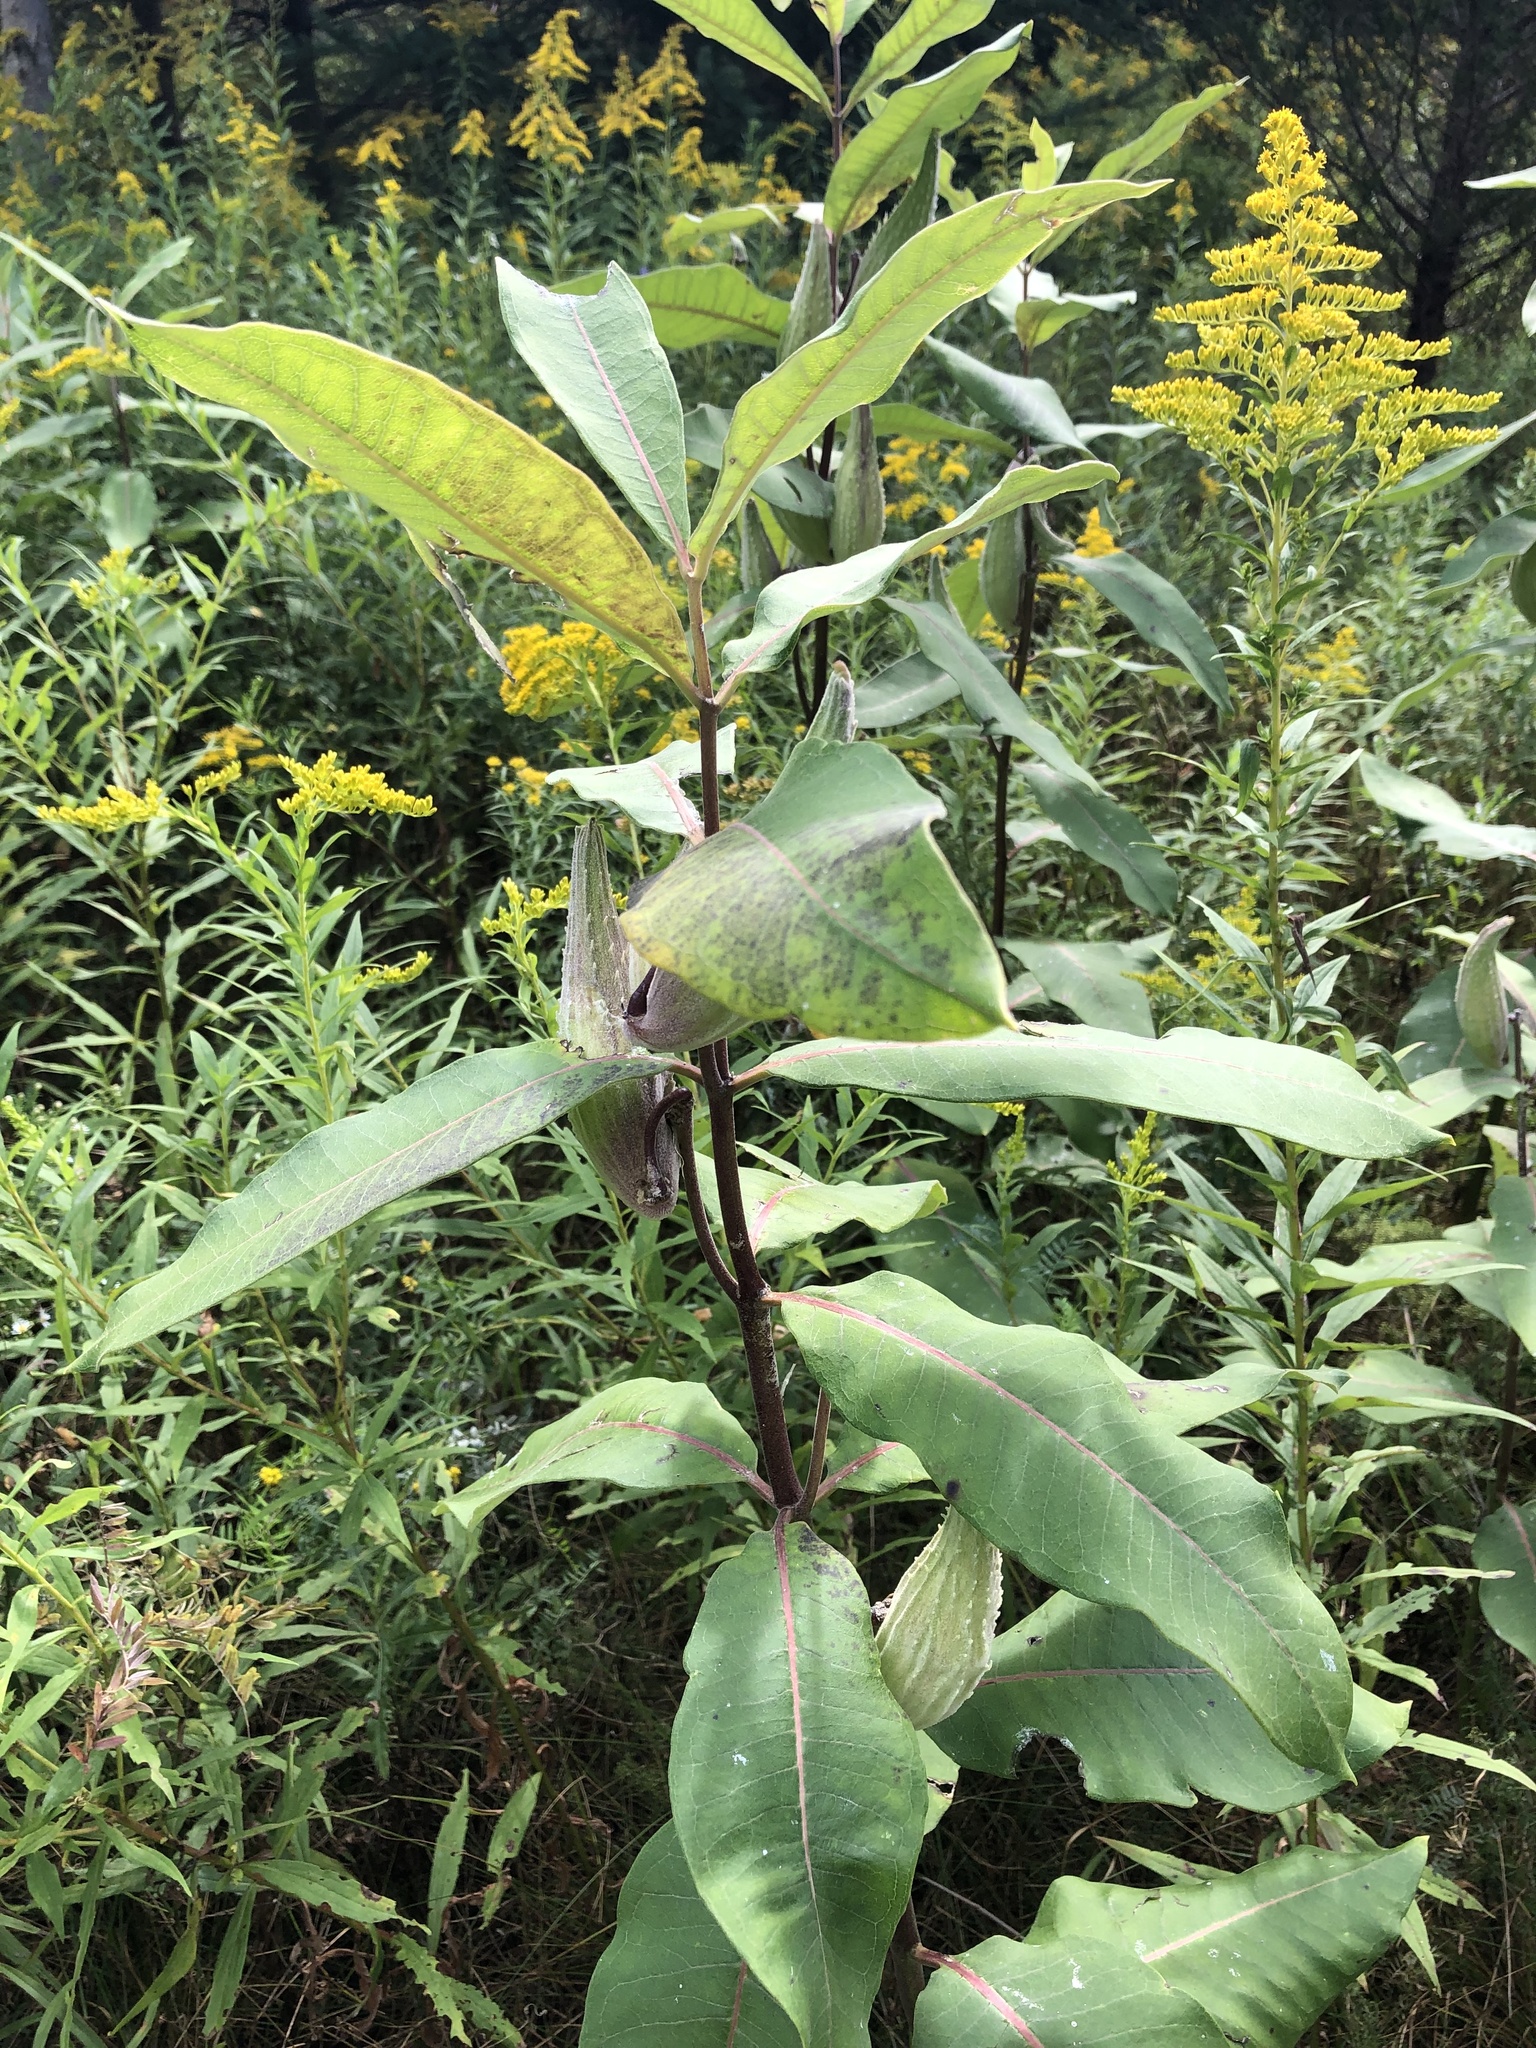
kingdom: Plantae
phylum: Tracheophyta
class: Magnoliopsida
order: Gentianales
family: Apocynaceae
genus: Asclepias
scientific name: Asclepias syriaca
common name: Common milkweed
